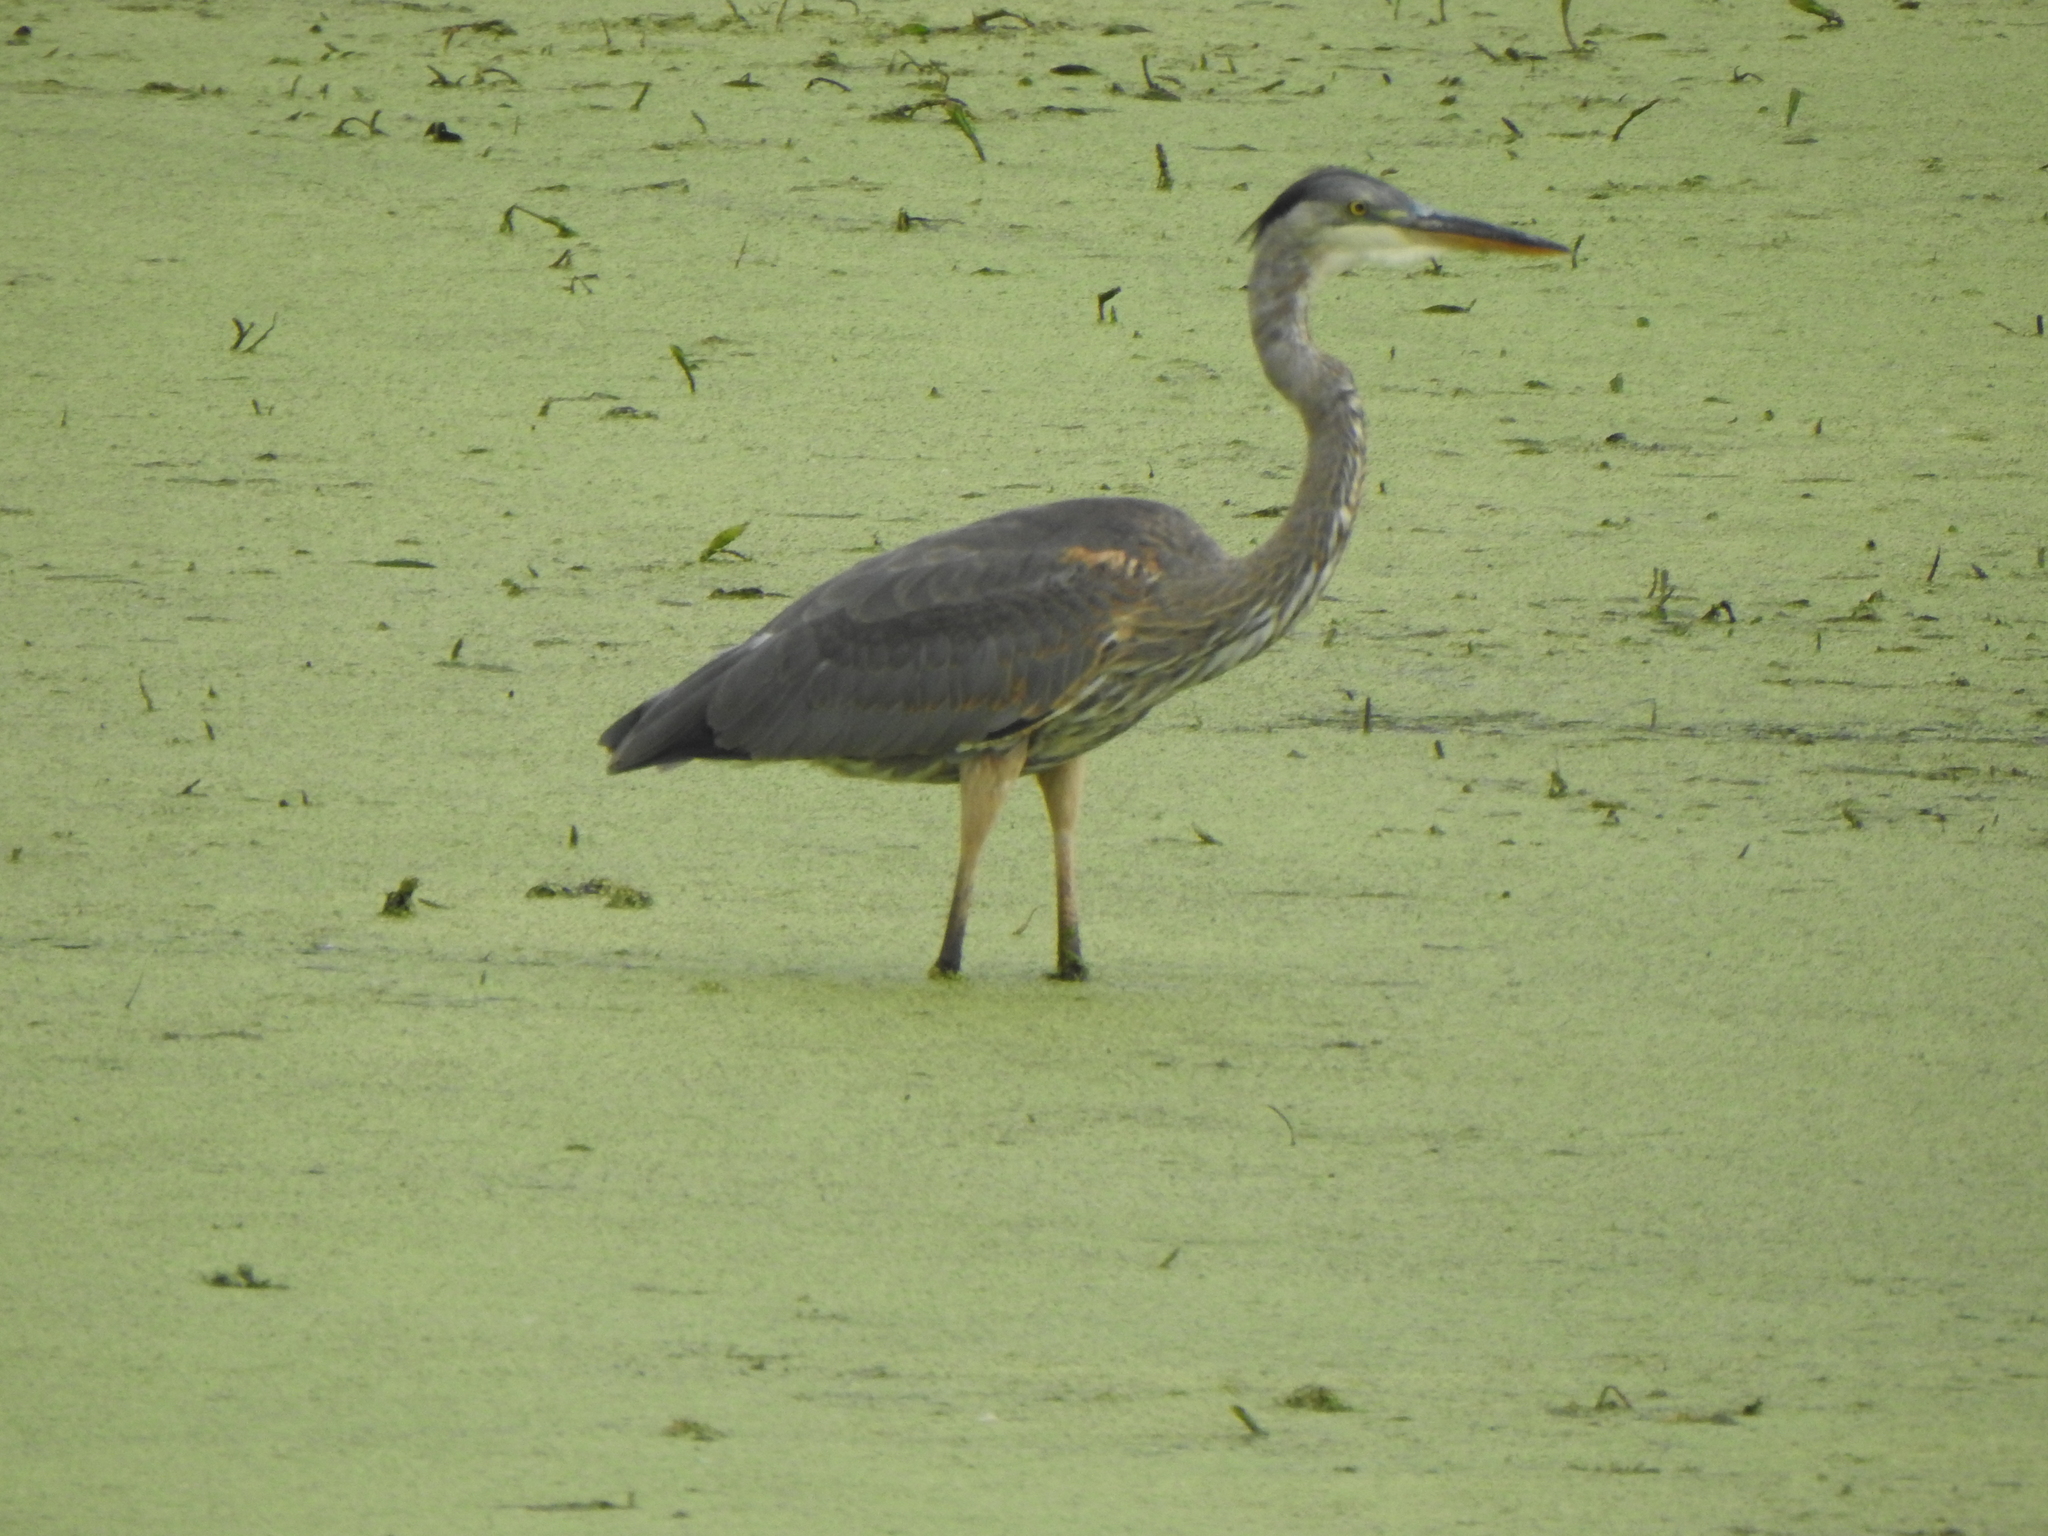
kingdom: Animalia
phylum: Chordata
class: Aves
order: Pelecaniformes
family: Ardeidae
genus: Ardea
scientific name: Ardea herodias
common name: Great blue heron
